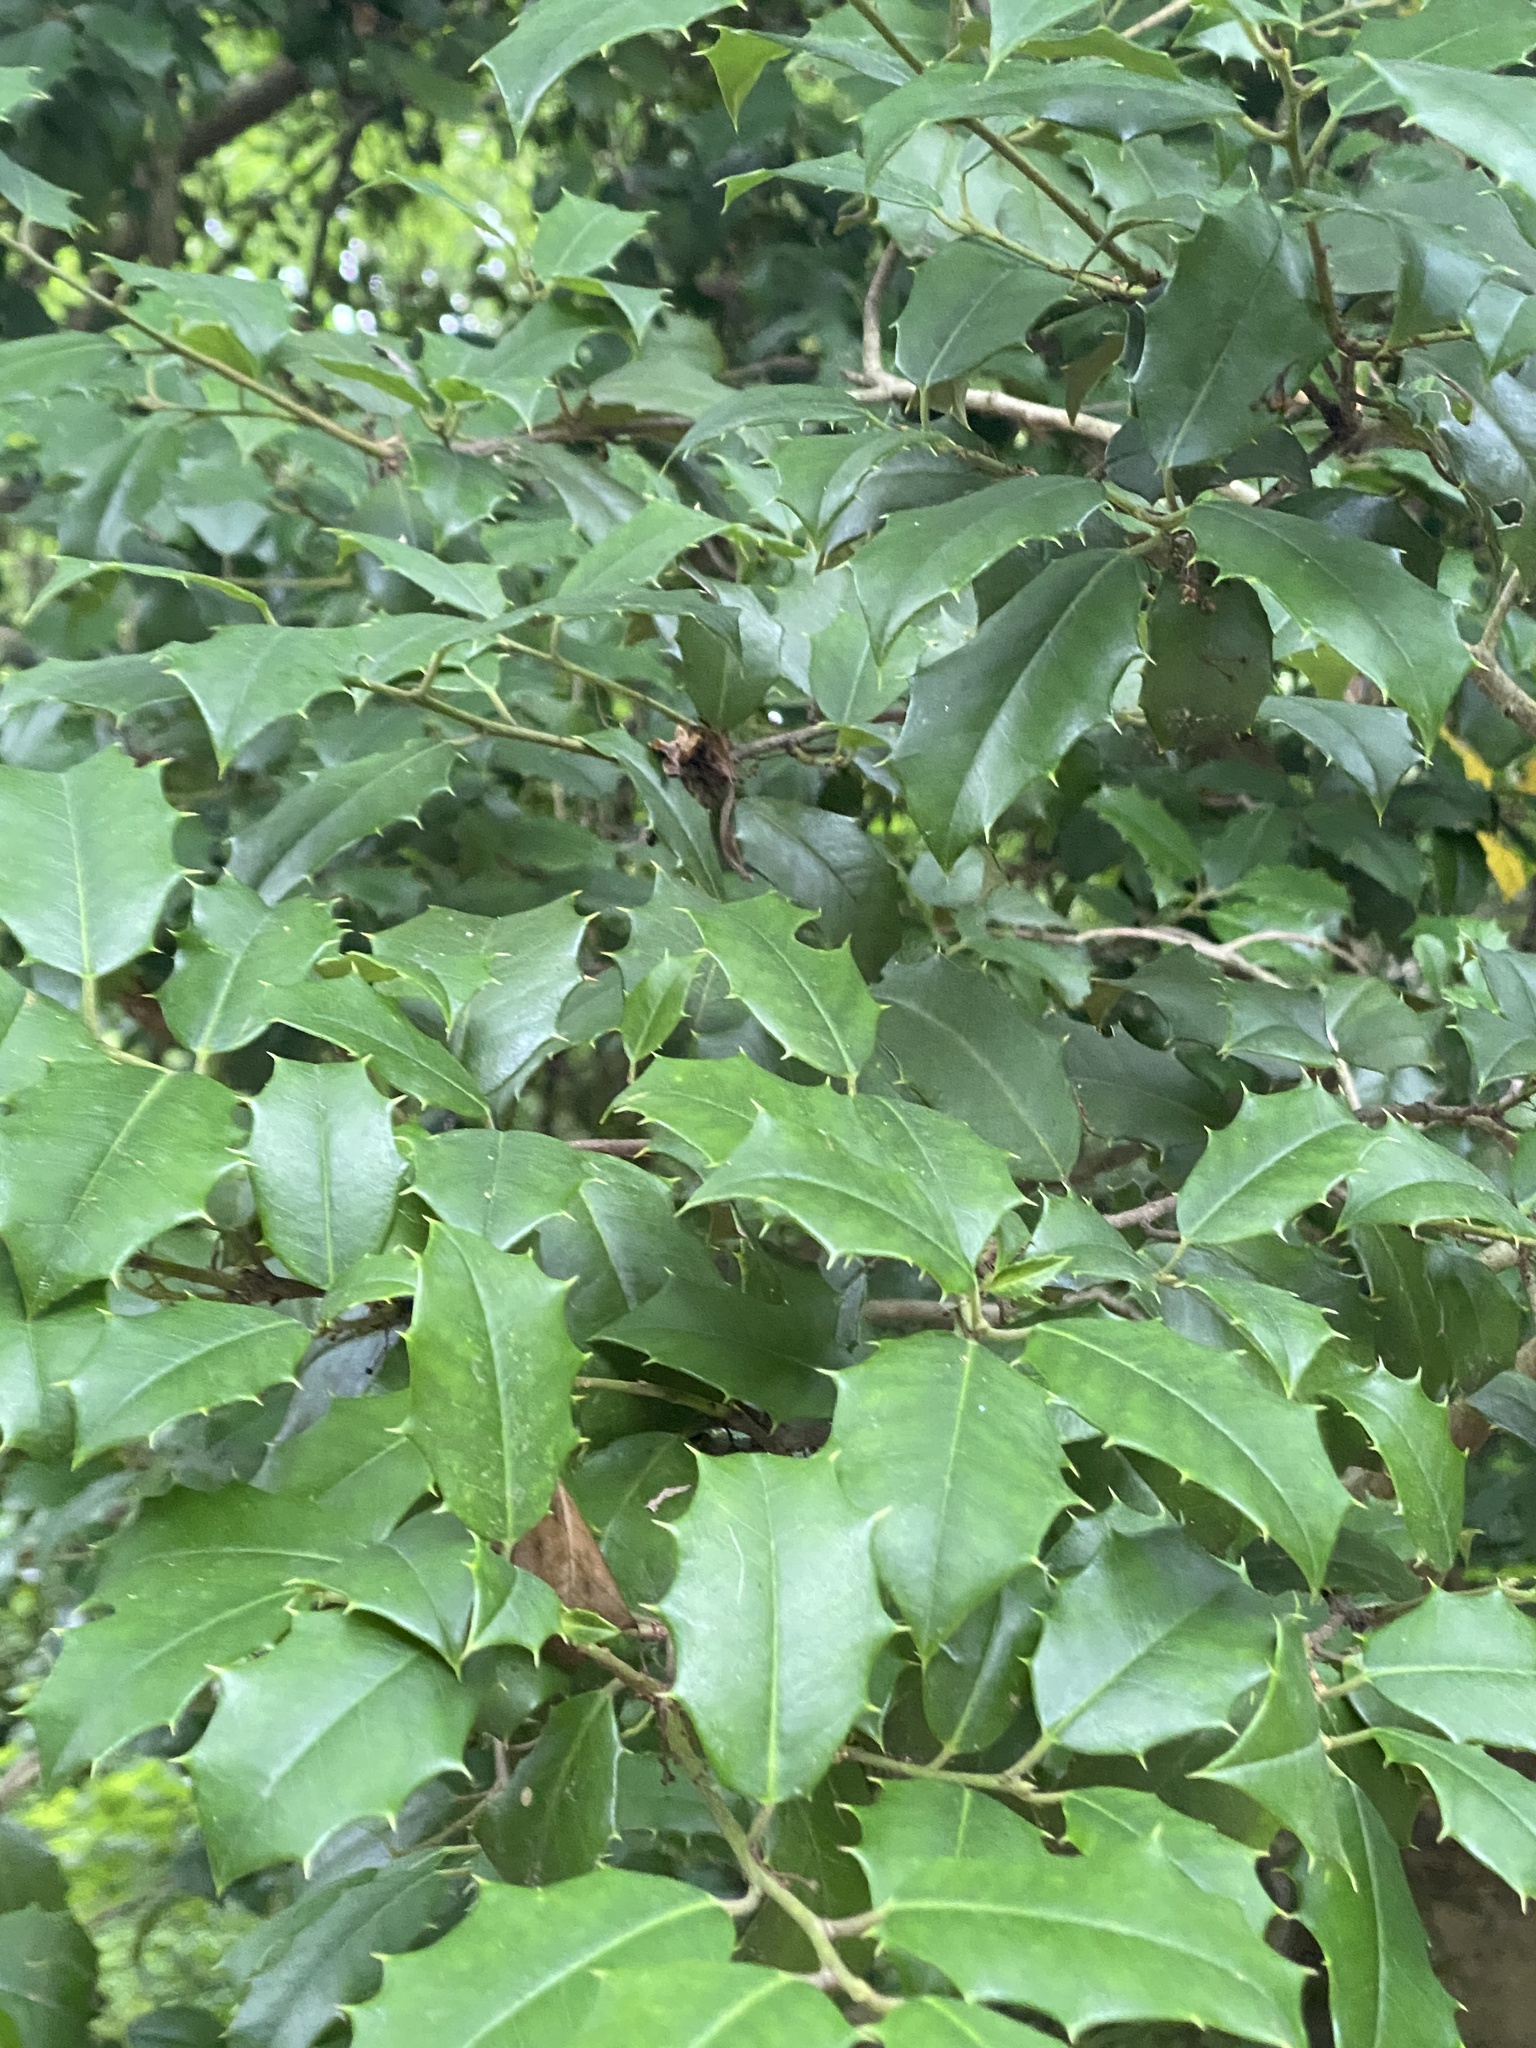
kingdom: Plantae
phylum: Tracheophyta
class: Magnoliopsida
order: Aquifoliales
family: Aquifoliaceae
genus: Ilex
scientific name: Ilex opaca
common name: American holly
